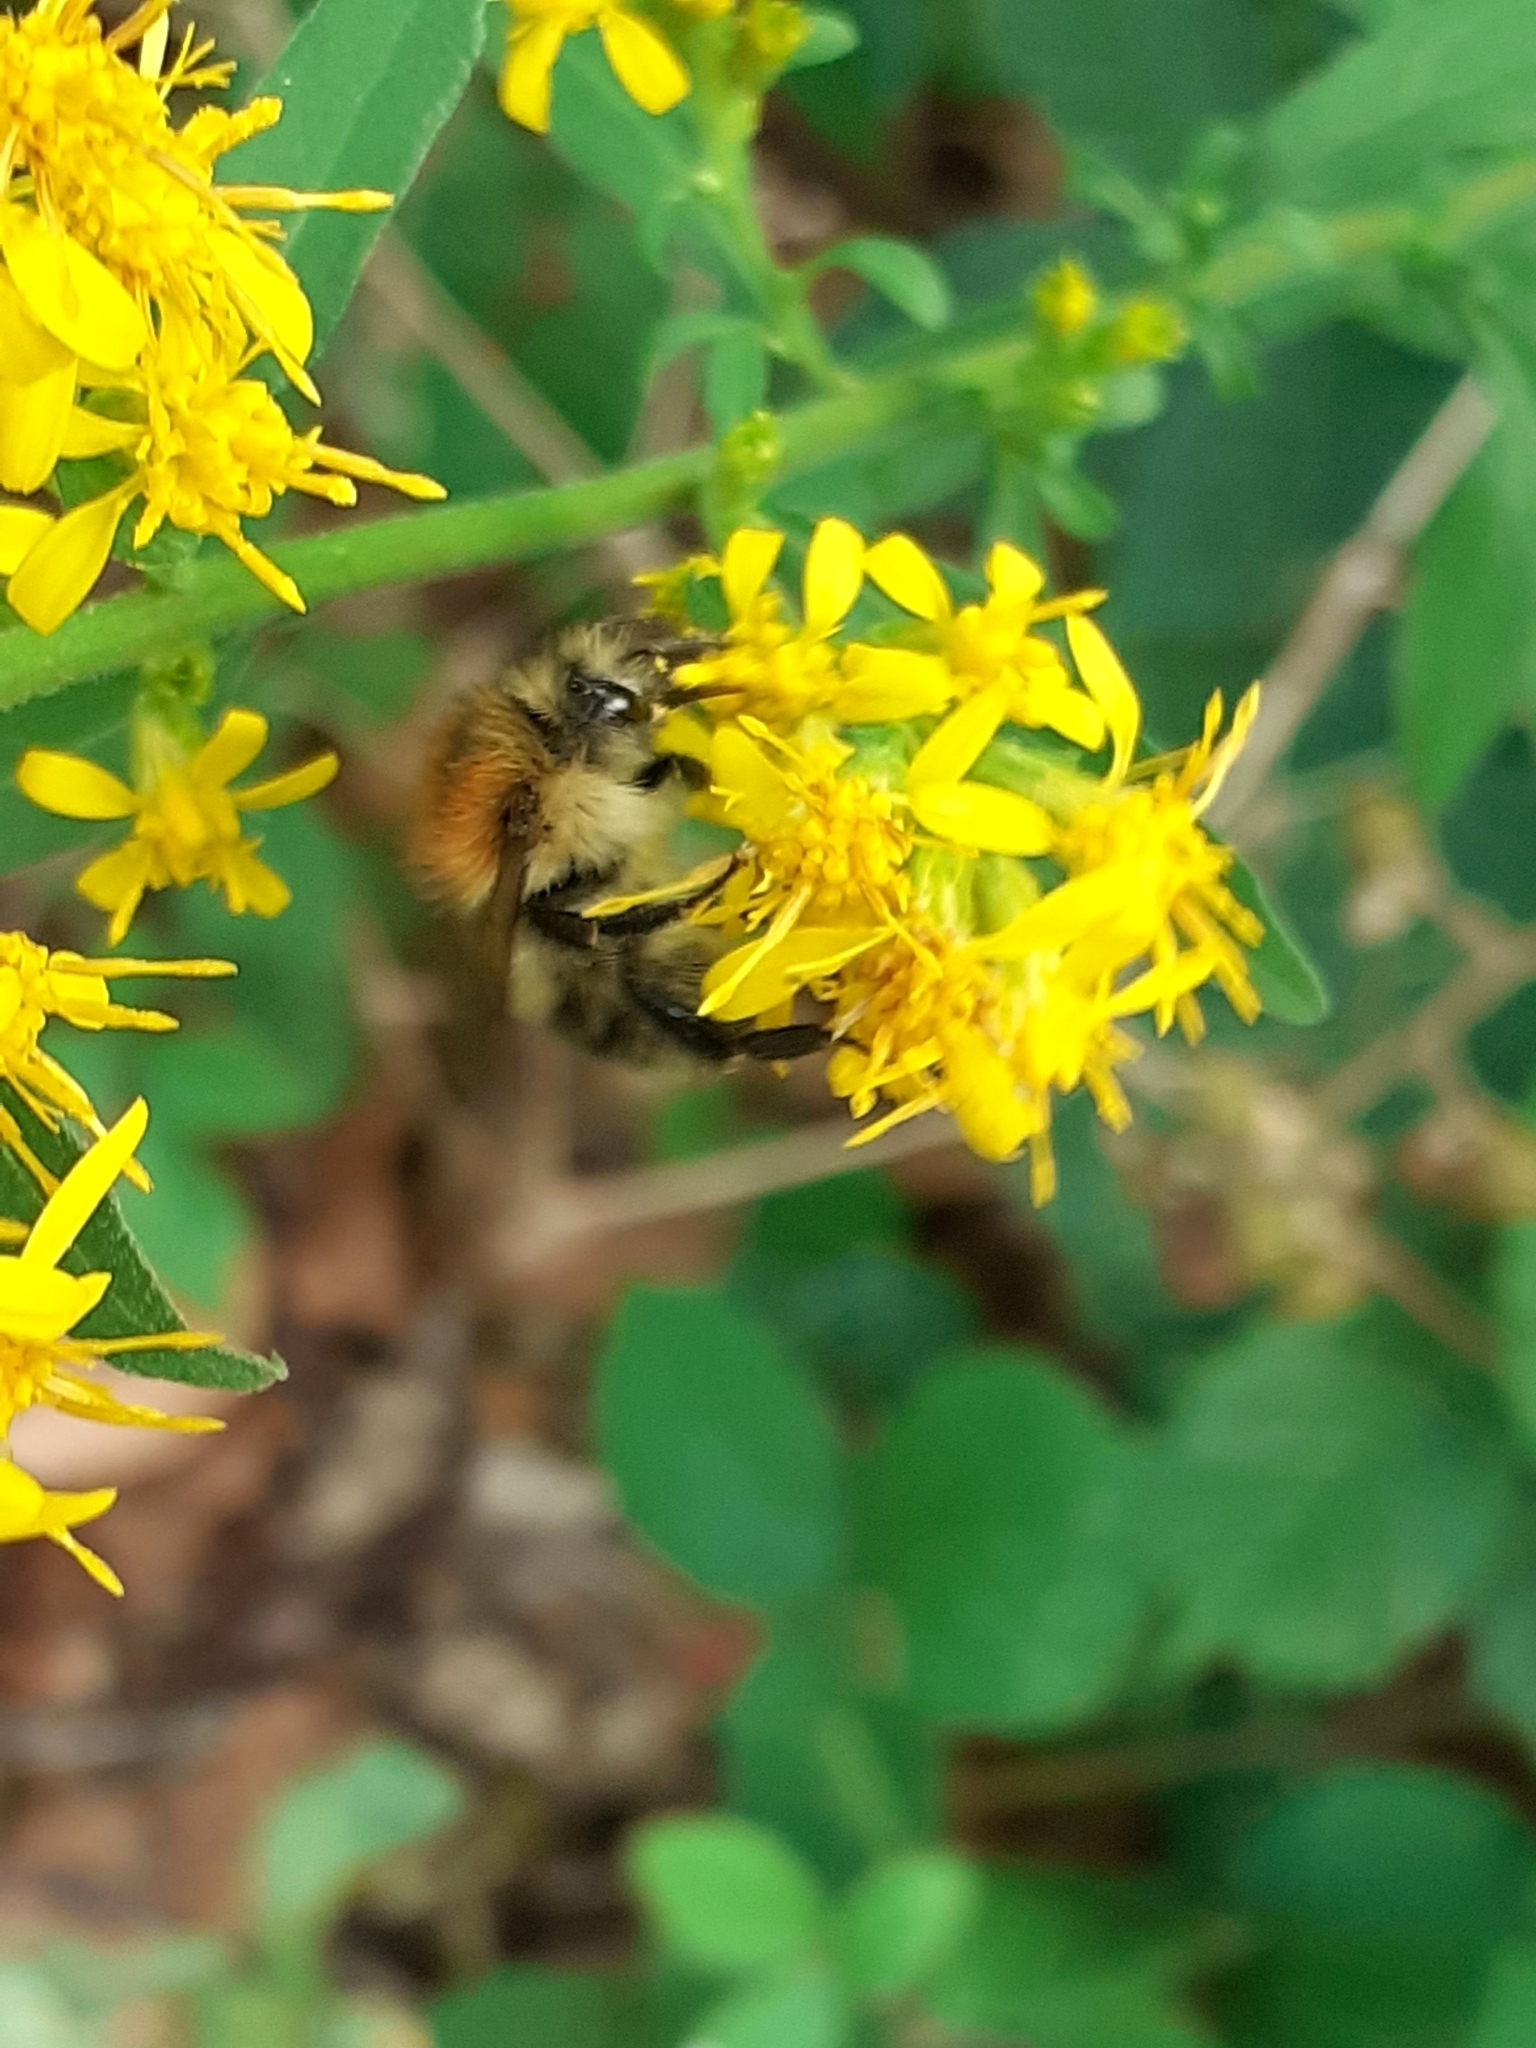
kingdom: Animalia
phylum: Arthropoda
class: Insecta
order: Hymenoptera
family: Apidae
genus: Bombus
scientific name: Bombus pascuorum
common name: Common carder bee
